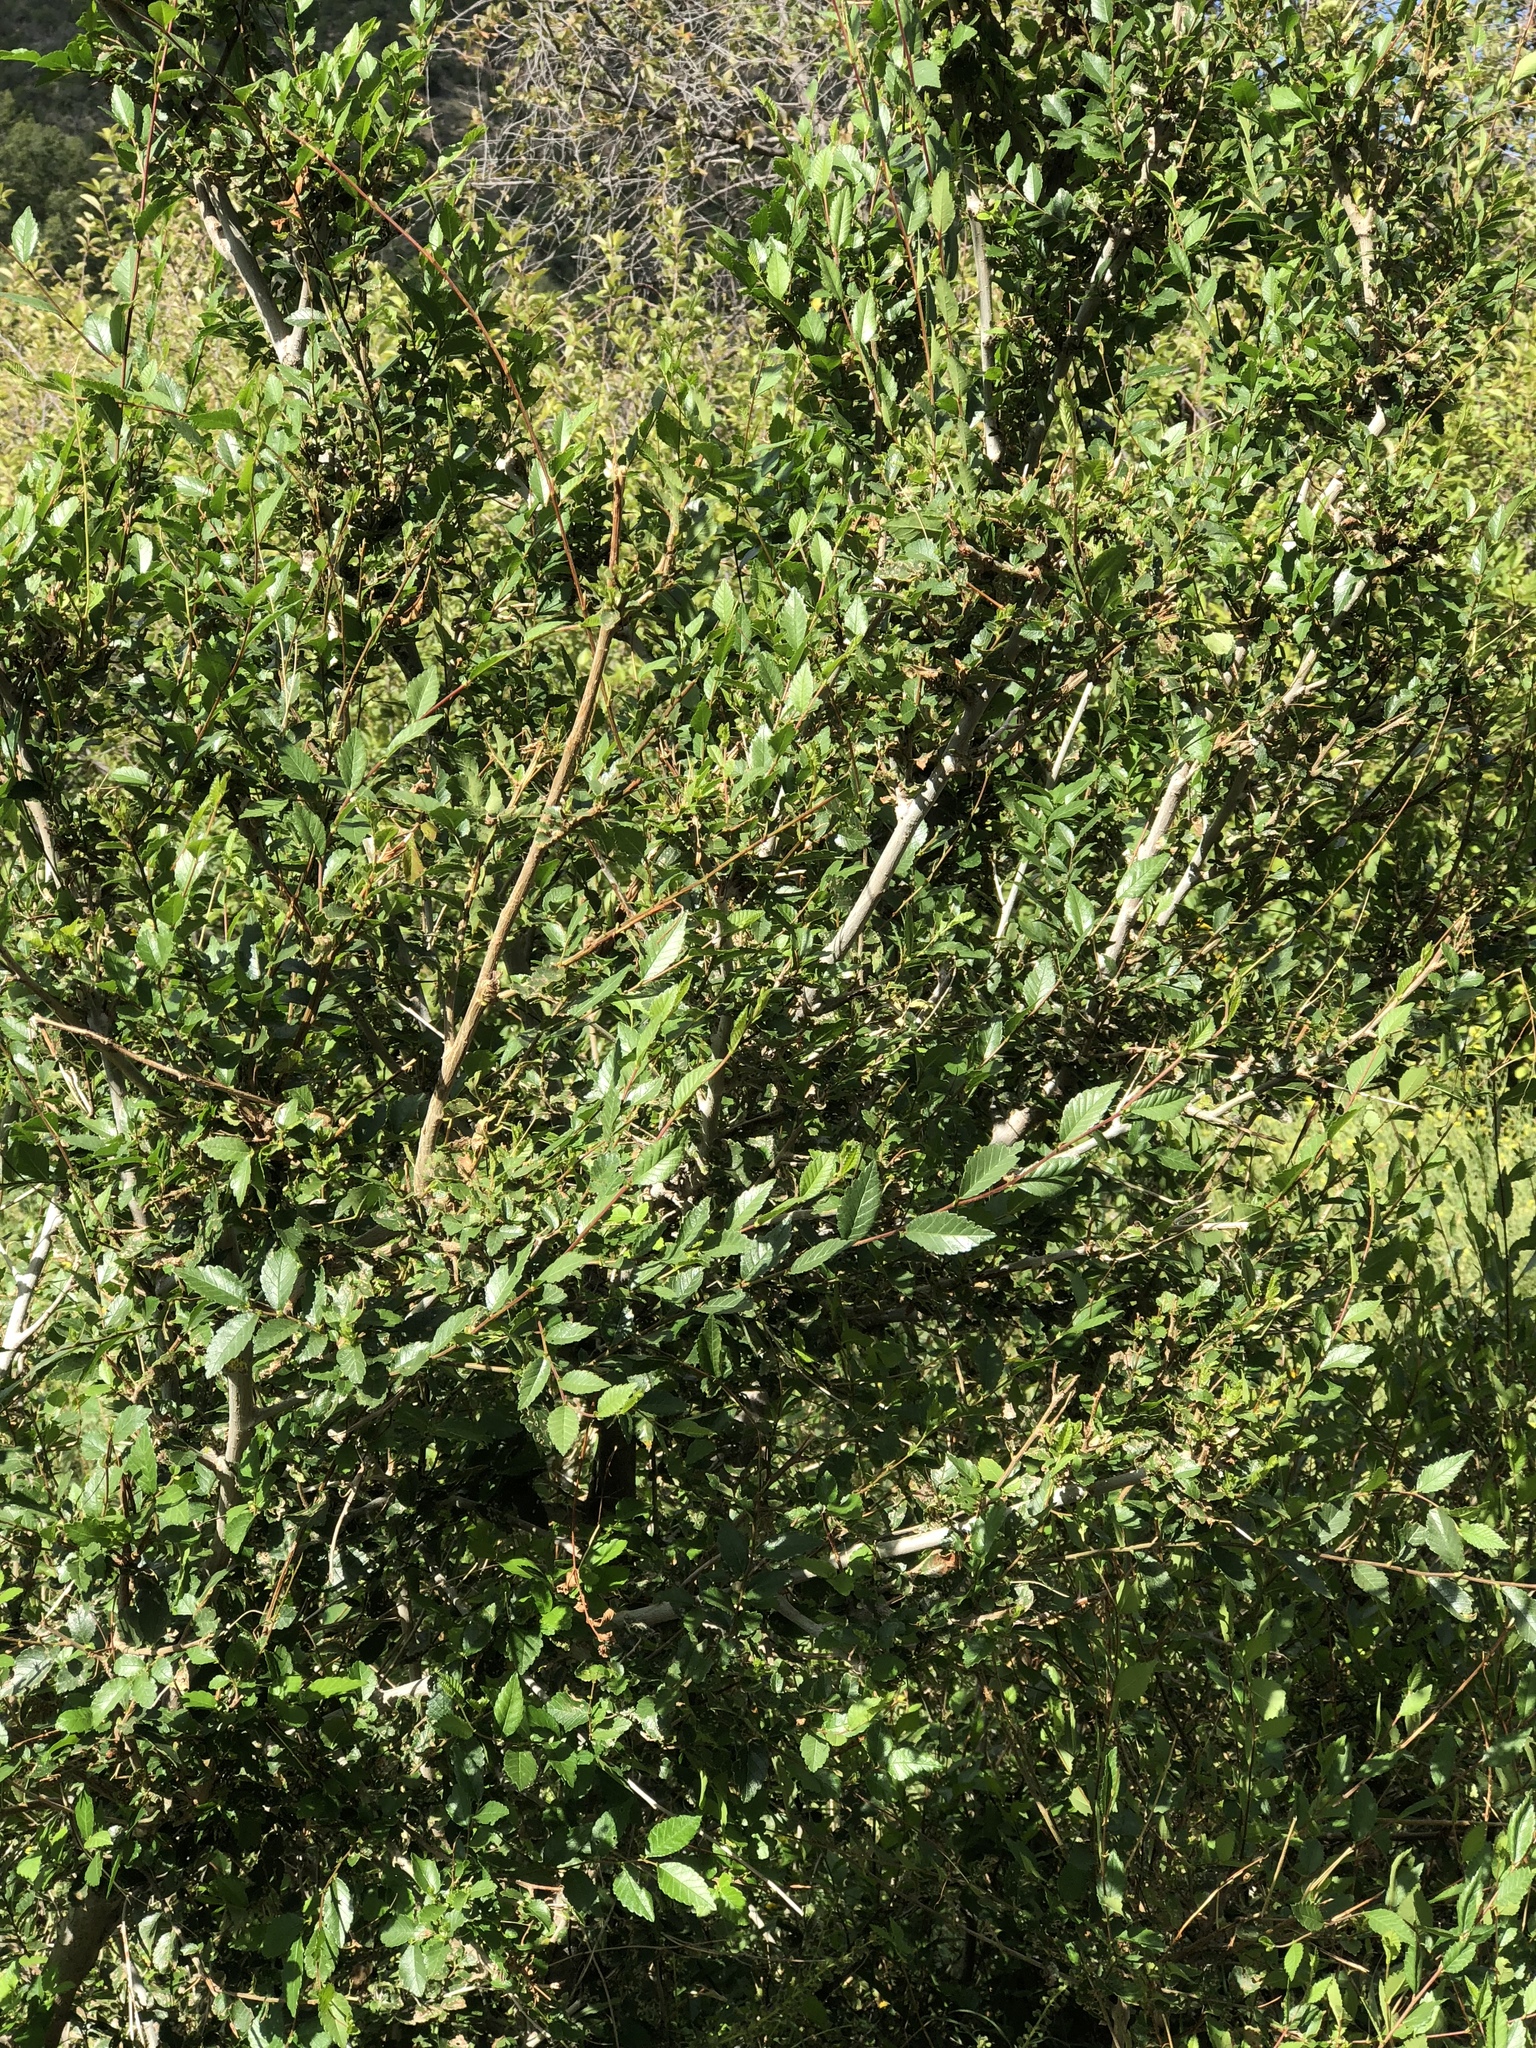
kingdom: Plantae
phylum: Tracheophyta
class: Magnoliopsida
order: Rosales
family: Ulmaceae
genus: Ulmus
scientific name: Ulmus pumila
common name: Siberian elm
